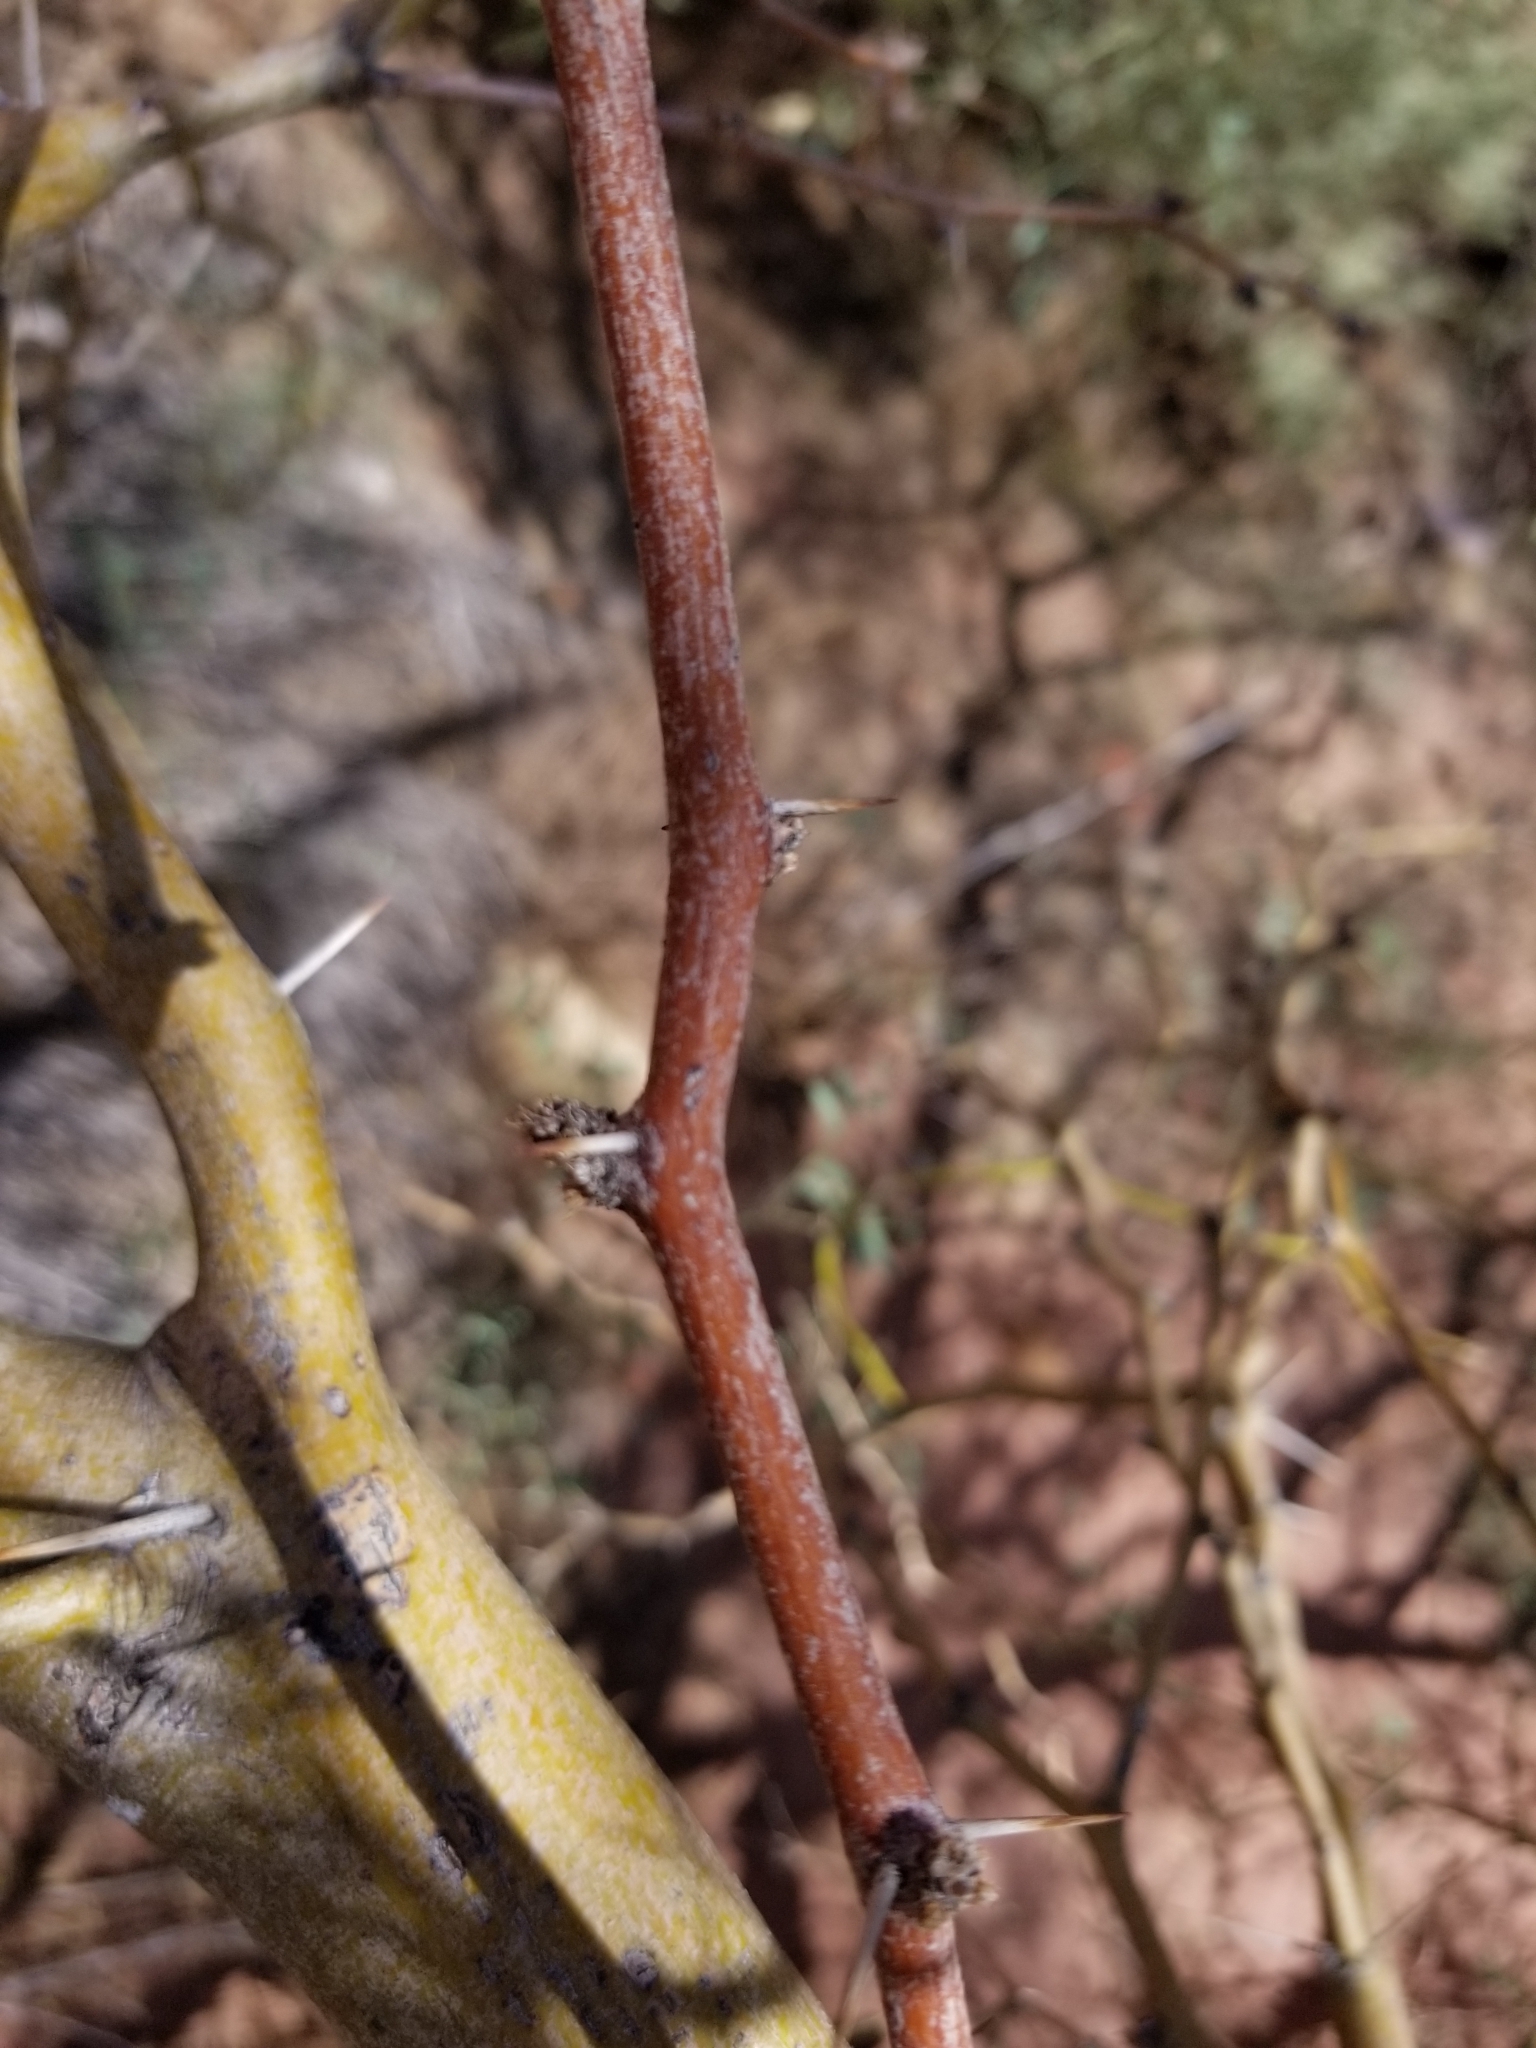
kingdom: Plantae
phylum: Tracheophyta
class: Magnoliopsida
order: Fabales
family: Fabaceae
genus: Prosopis
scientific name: Prosopis glandulosa
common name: Honey mesquite
